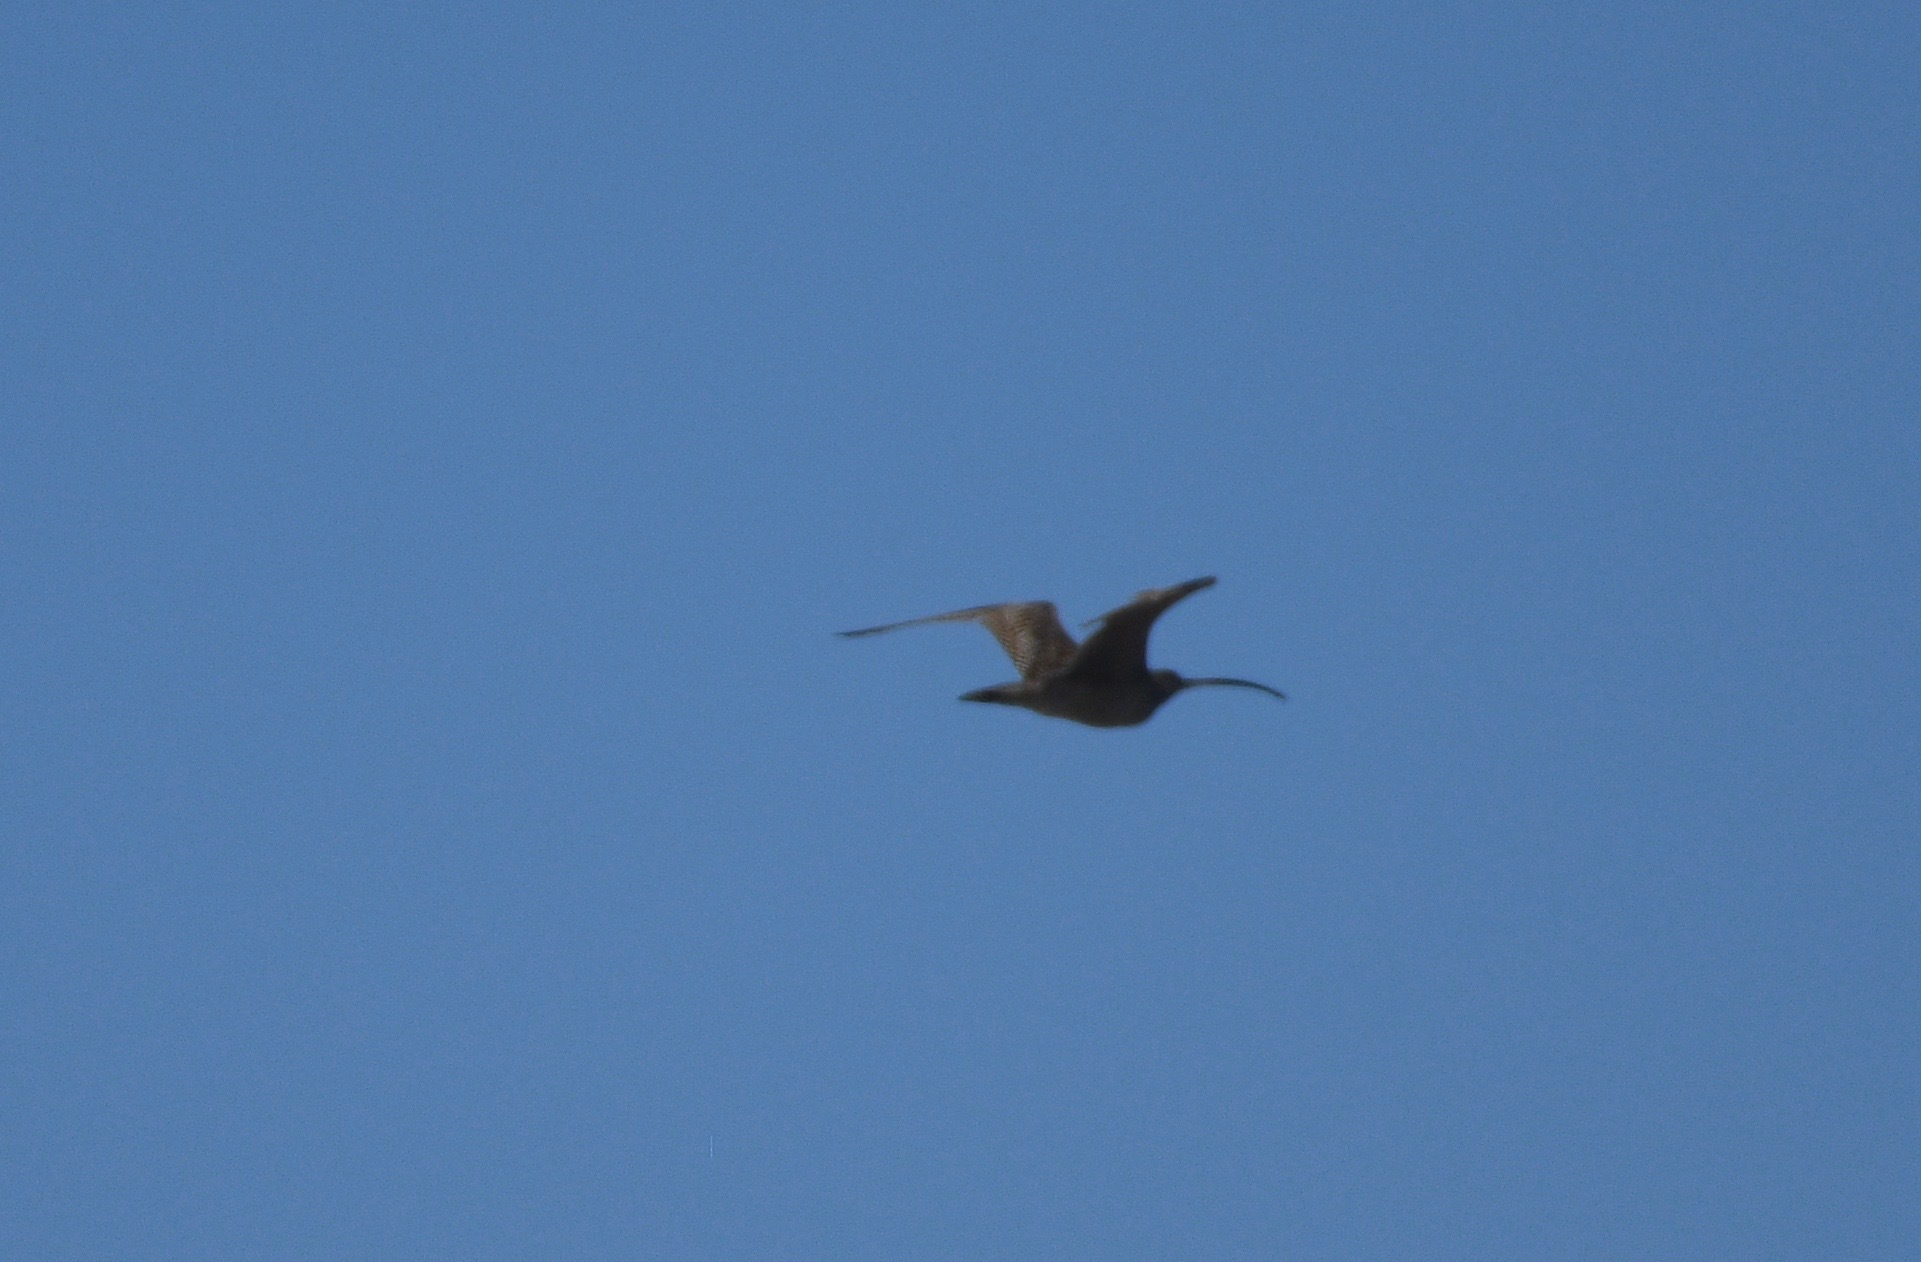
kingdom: Animalia
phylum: Chordata
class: Aves
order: Charadriiformes
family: Scolopacidae
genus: Numenius
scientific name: Numenius americanus
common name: Long-billed curlew
